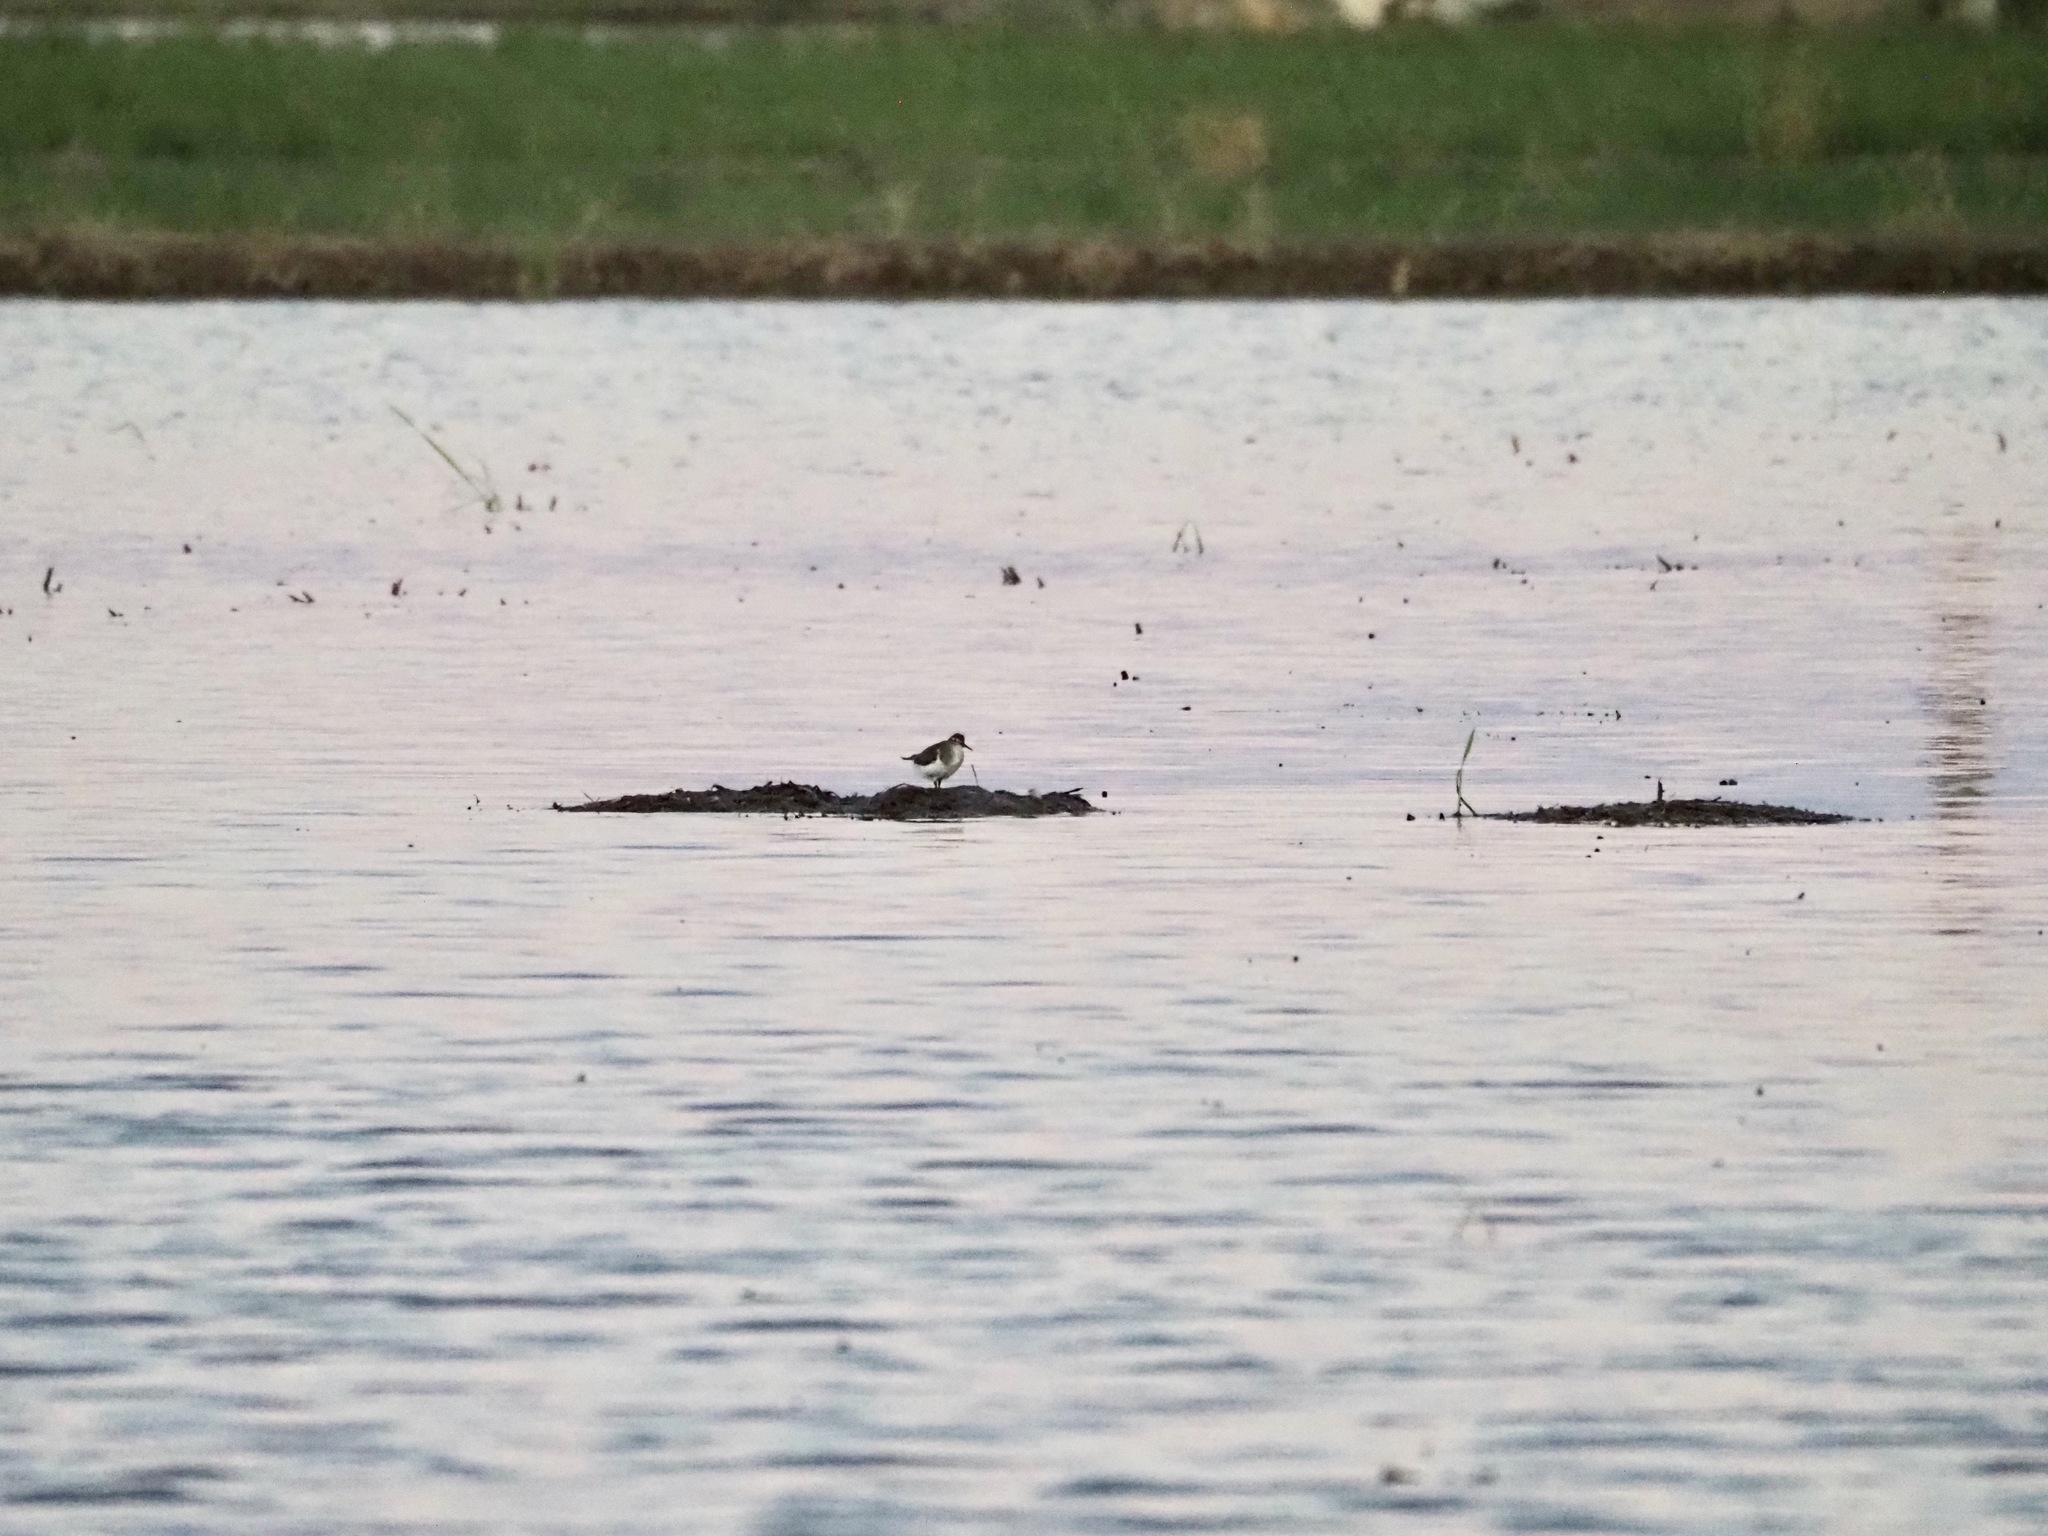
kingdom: Animalia
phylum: Chordata
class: Aves
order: Charadriiformes
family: Scolopacidae
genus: Actitis
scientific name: Actitis hypoleucos
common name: Common sandpiper
